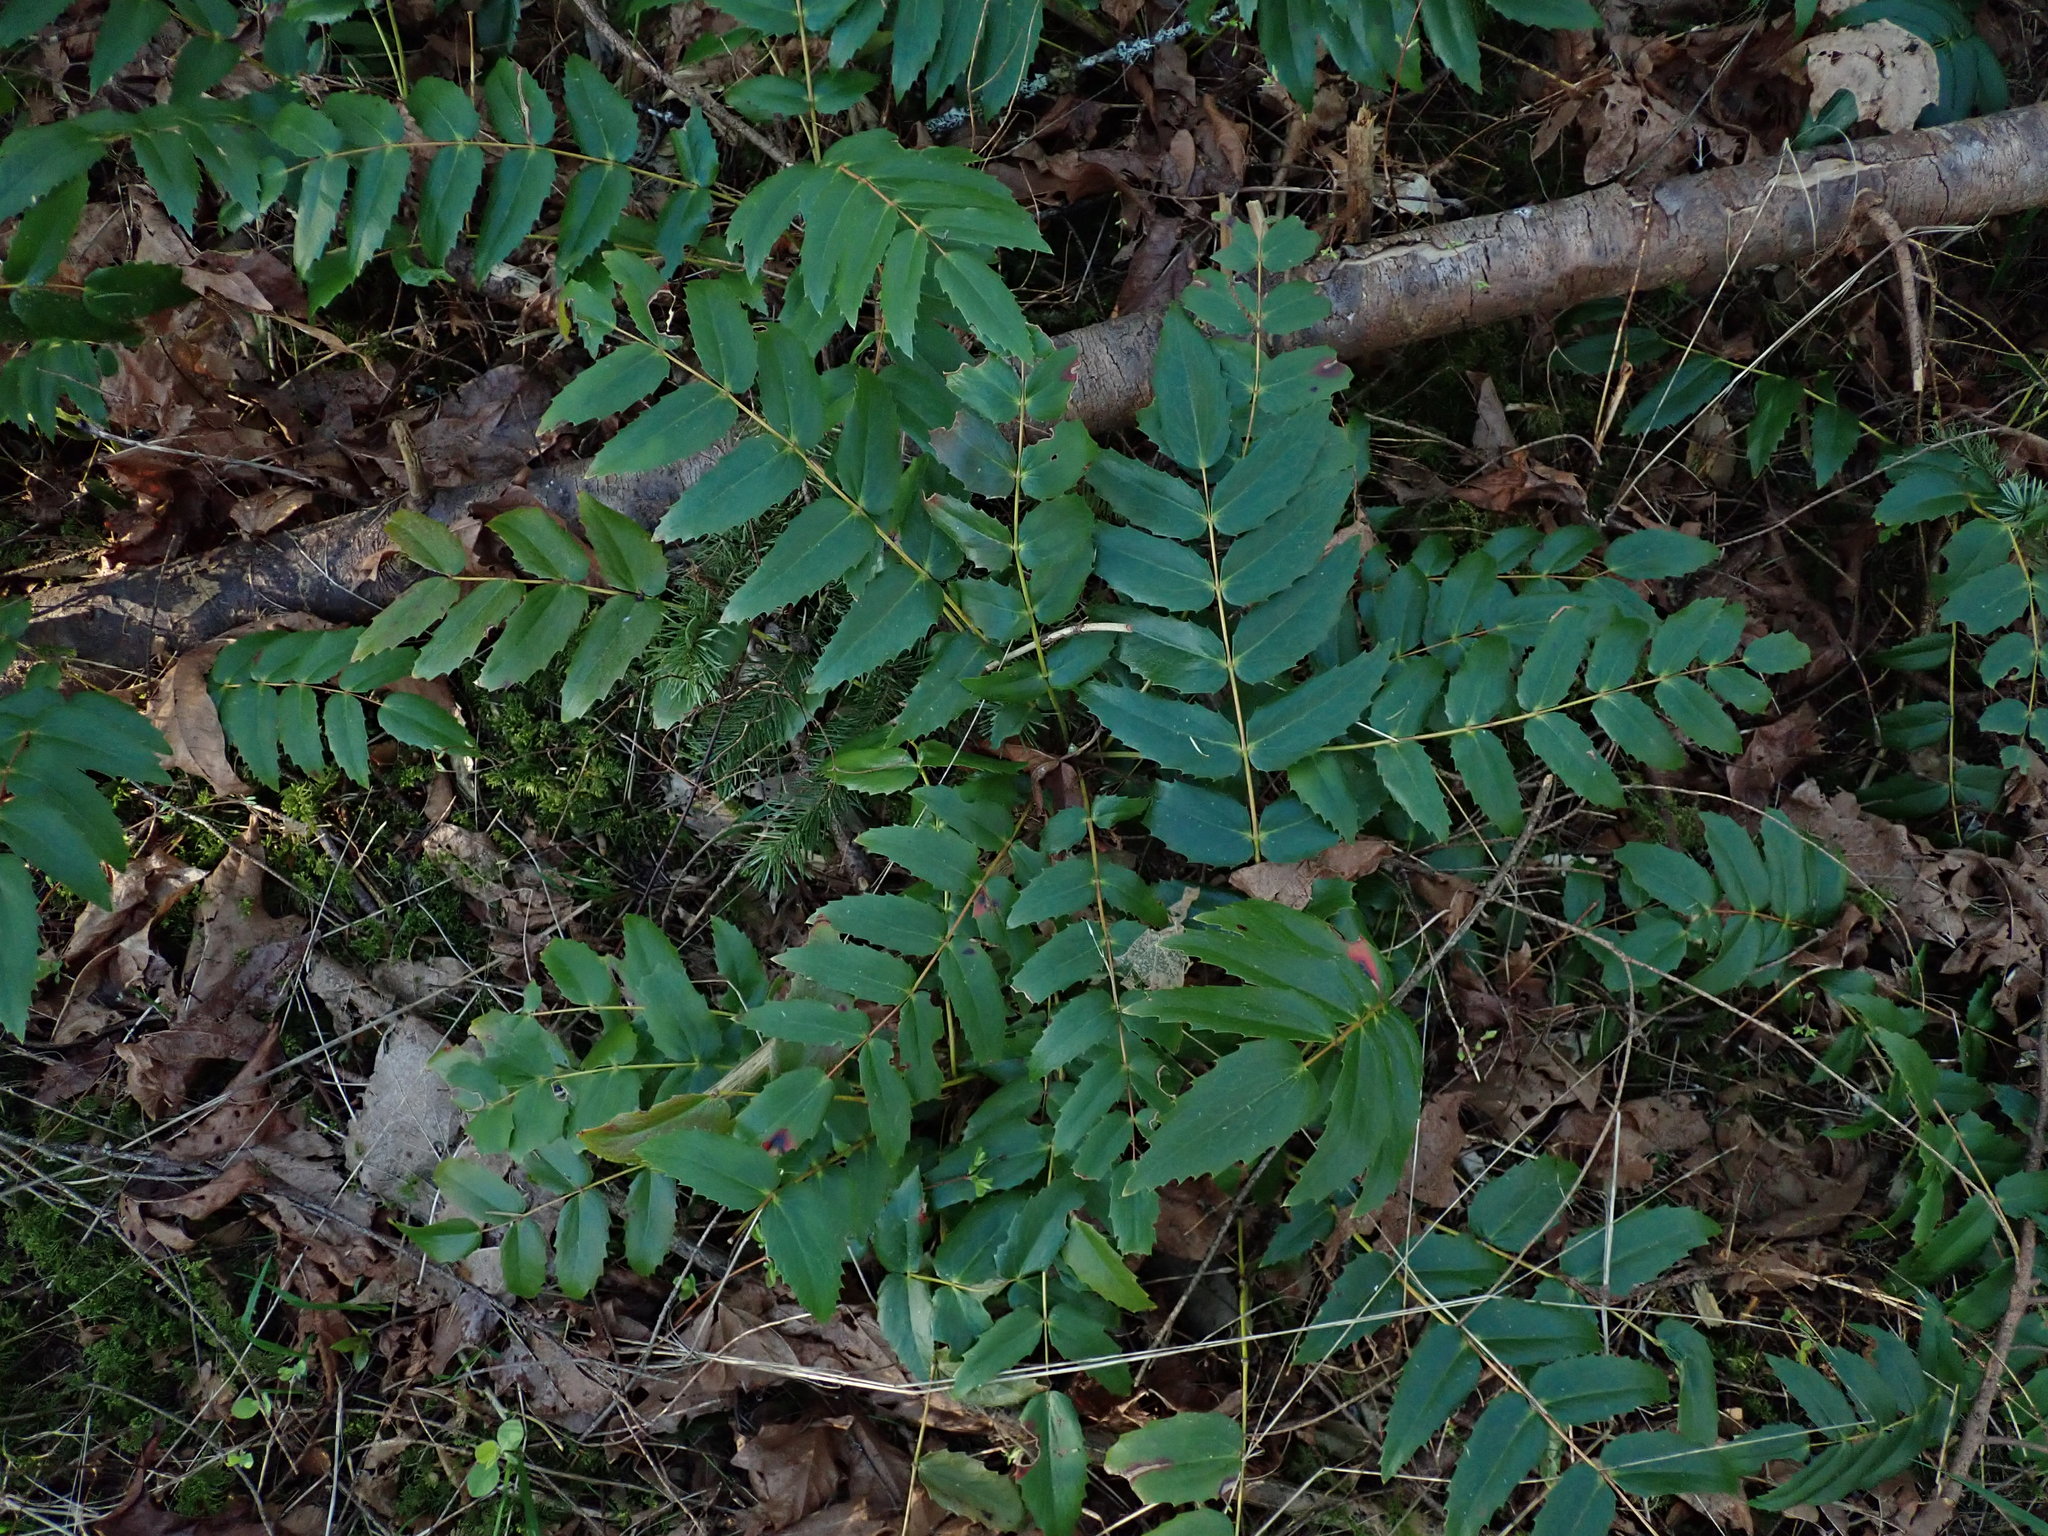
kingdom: Plantae
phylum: Tracheophyta
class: Magnoliopsida
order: Ranunculales
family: Berberidaceae
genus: Mahonia
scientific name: Mahonia nervosa
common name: Cascade oregon-grape
